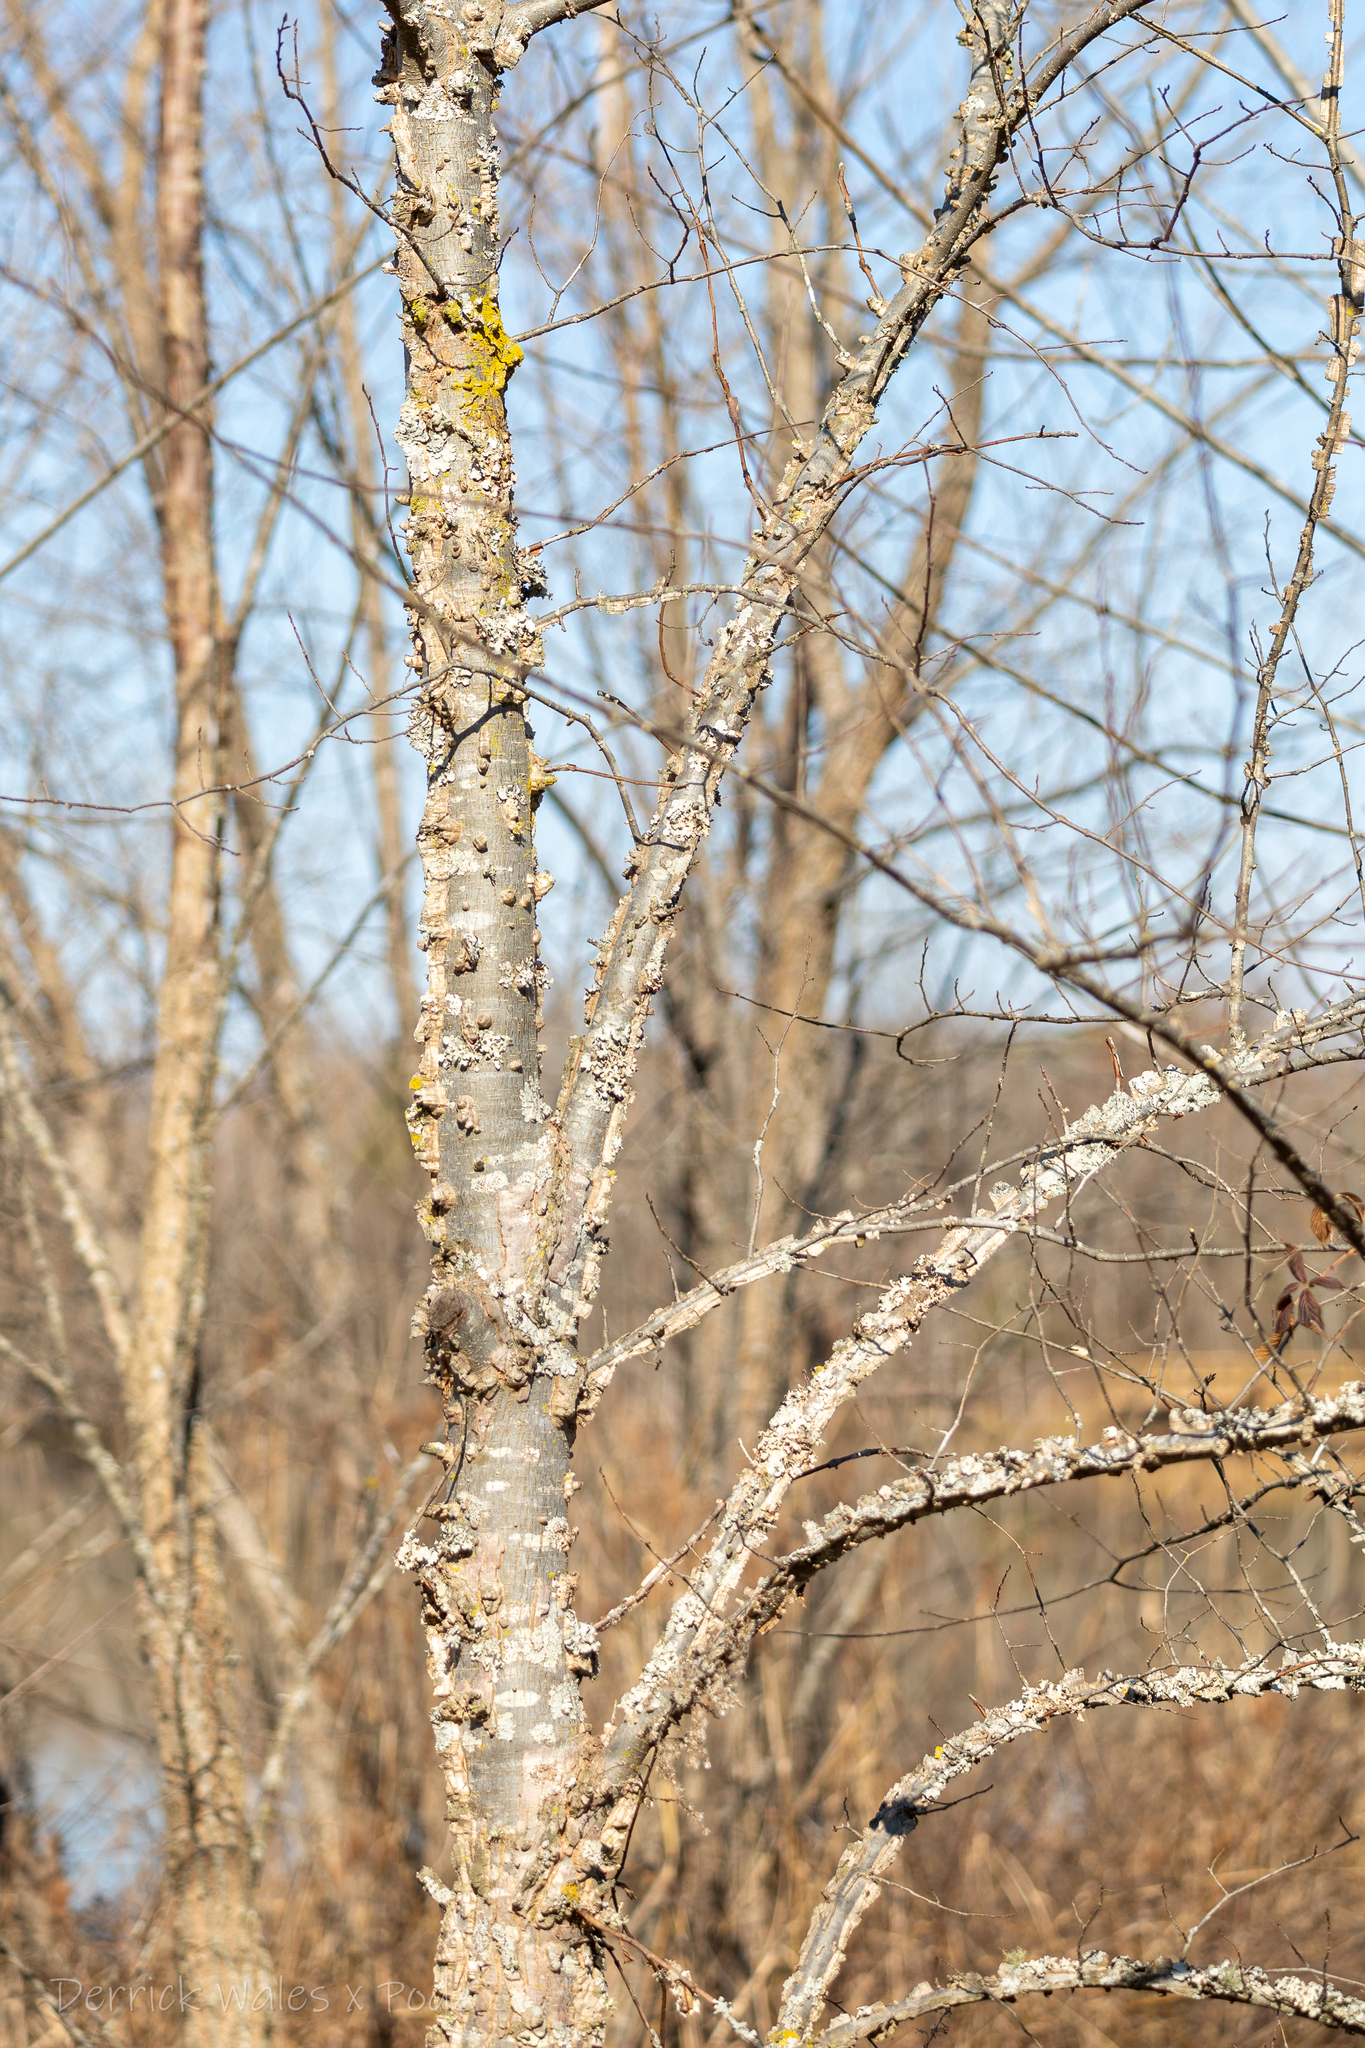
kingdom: Plantae
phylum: Tracheophyta
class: Magnoliopsida
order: Rosales
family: Ulmaceae
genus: Ulmus
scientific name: Ulmus alata
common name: Winged elm
